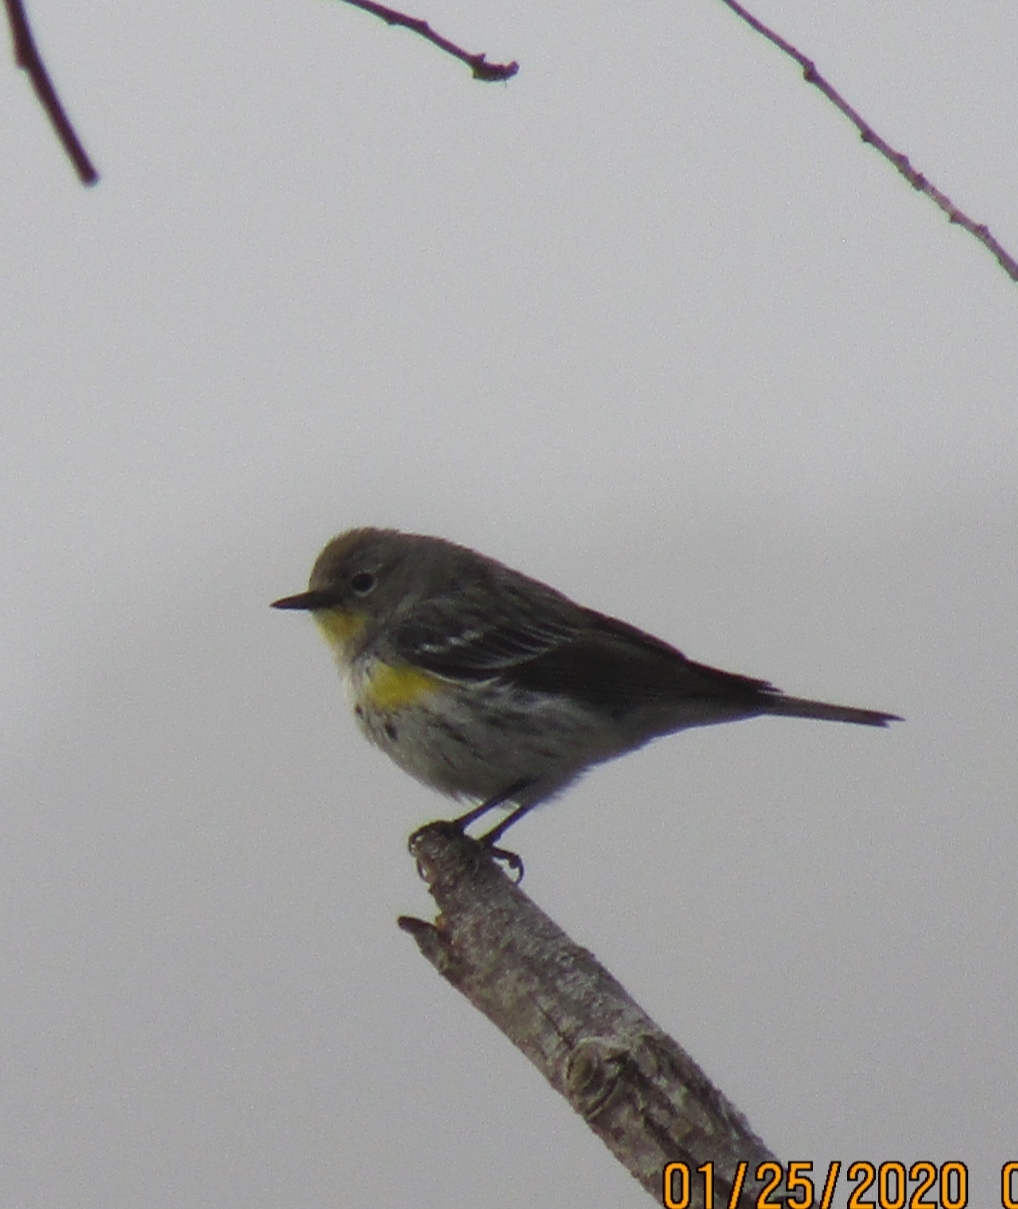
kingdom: Animalia
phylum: Chordata
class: Aves
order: Passeriformes
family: Parulidae
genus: Setophaga
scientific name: Setophaga coronata
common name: Myrtle warbler
